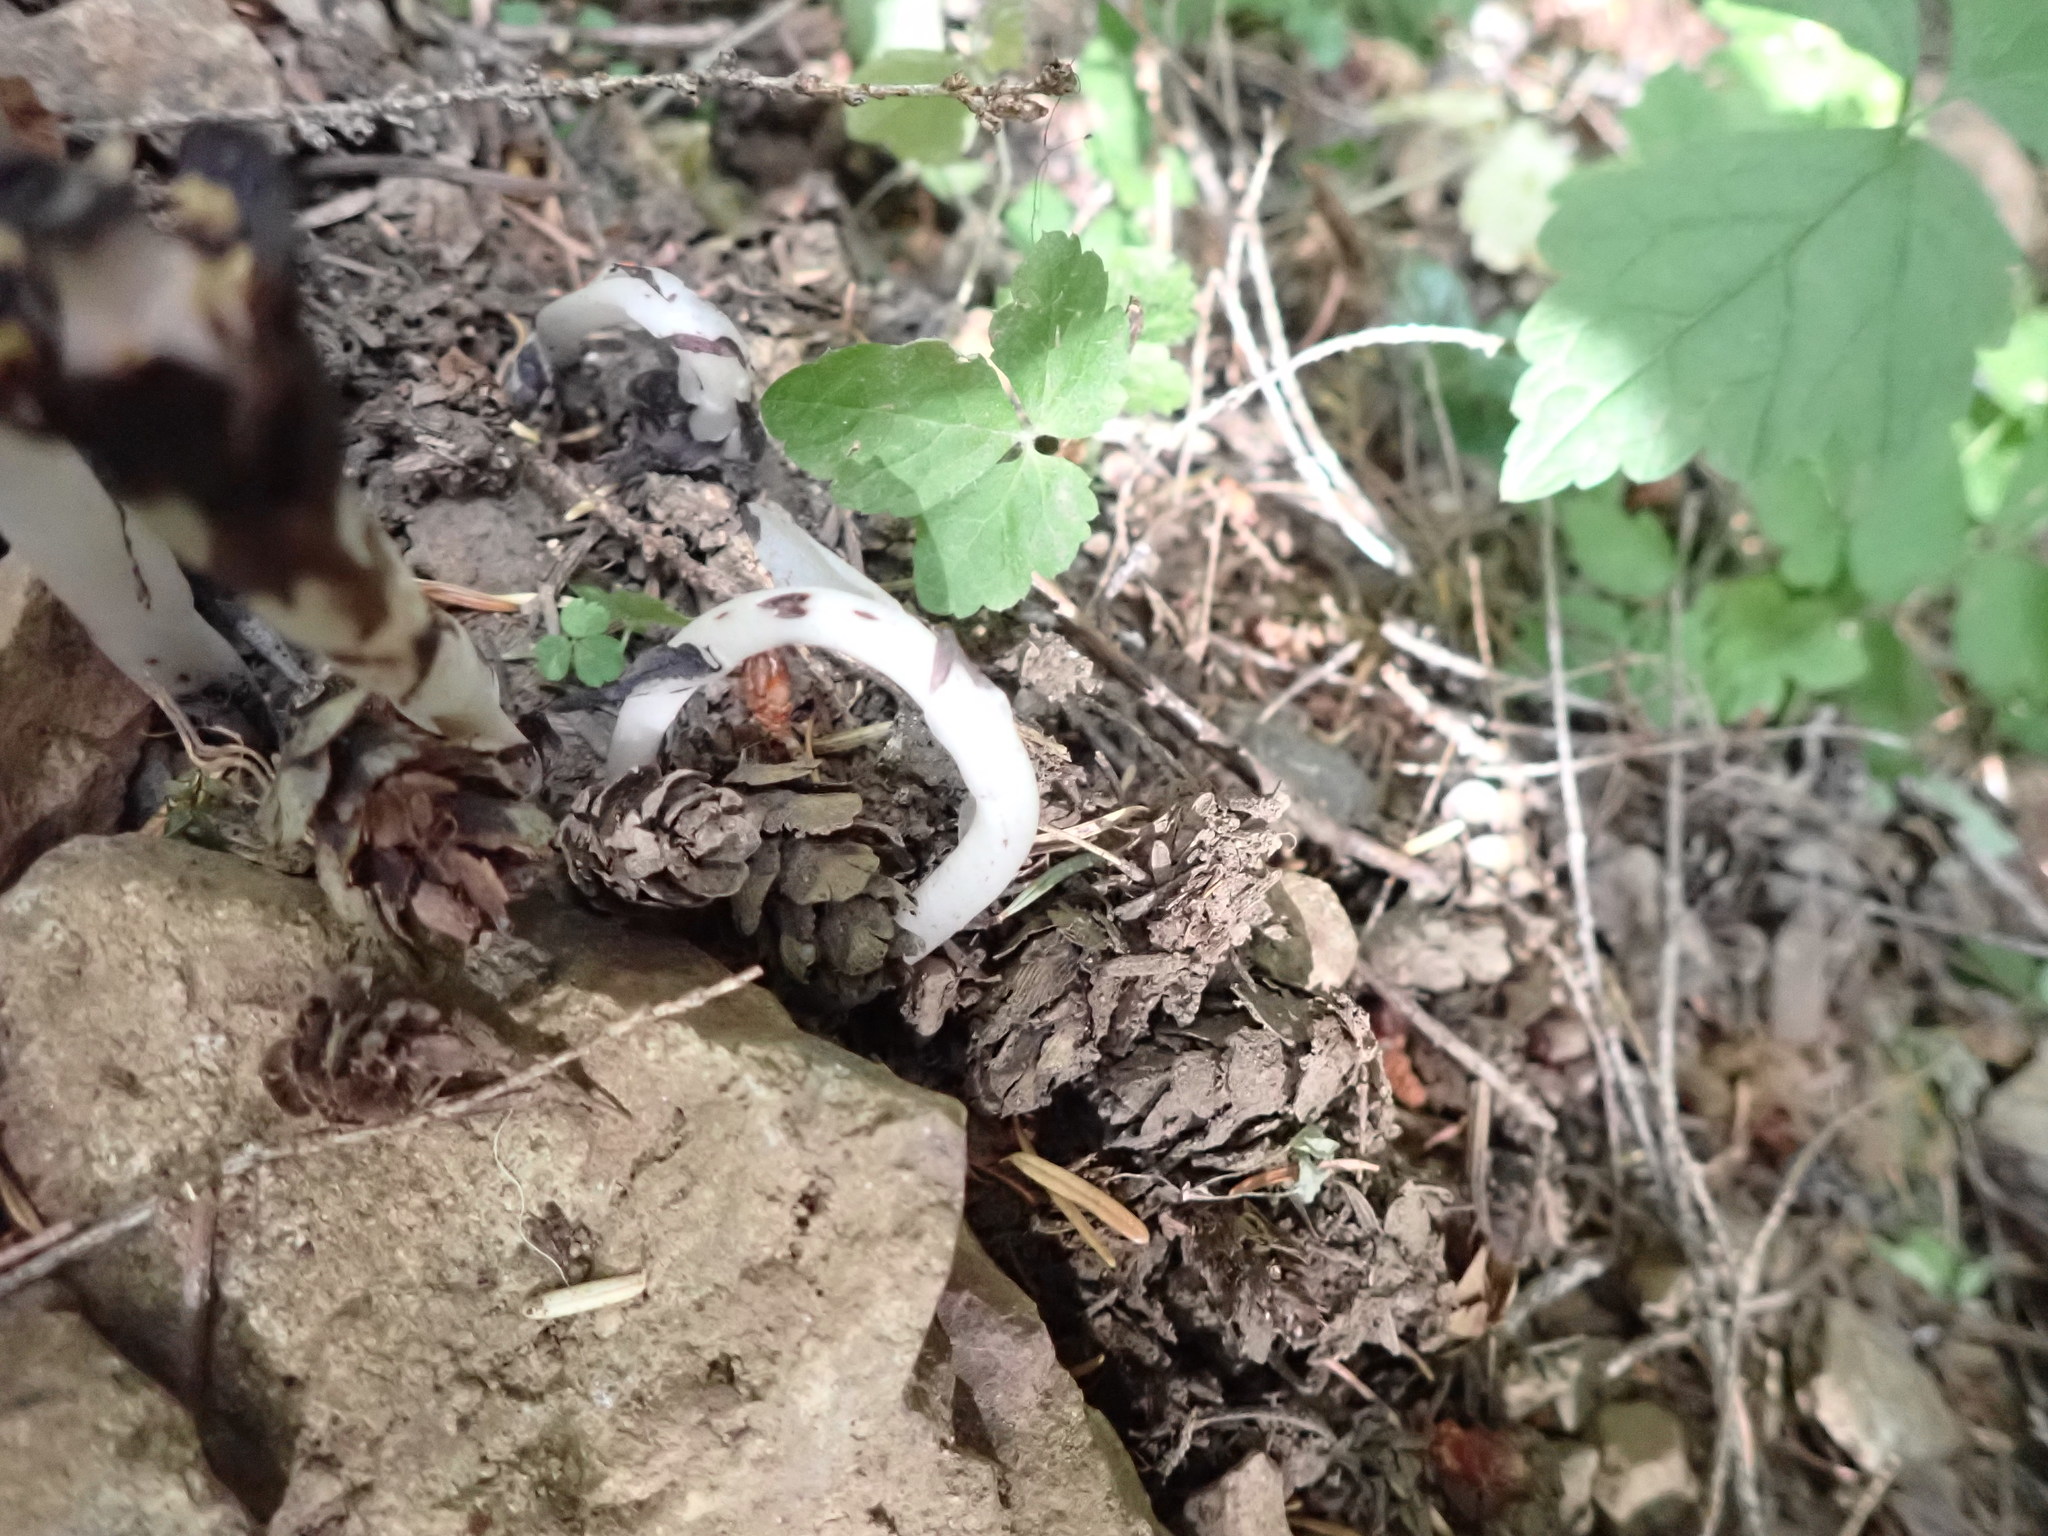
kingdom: Plantae
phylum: Tracheophyta
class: Magnoliopsida
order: Ericales
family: Ericaceae
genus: Monotropa
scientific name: Monotropa uniflora
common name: Convulsion root
